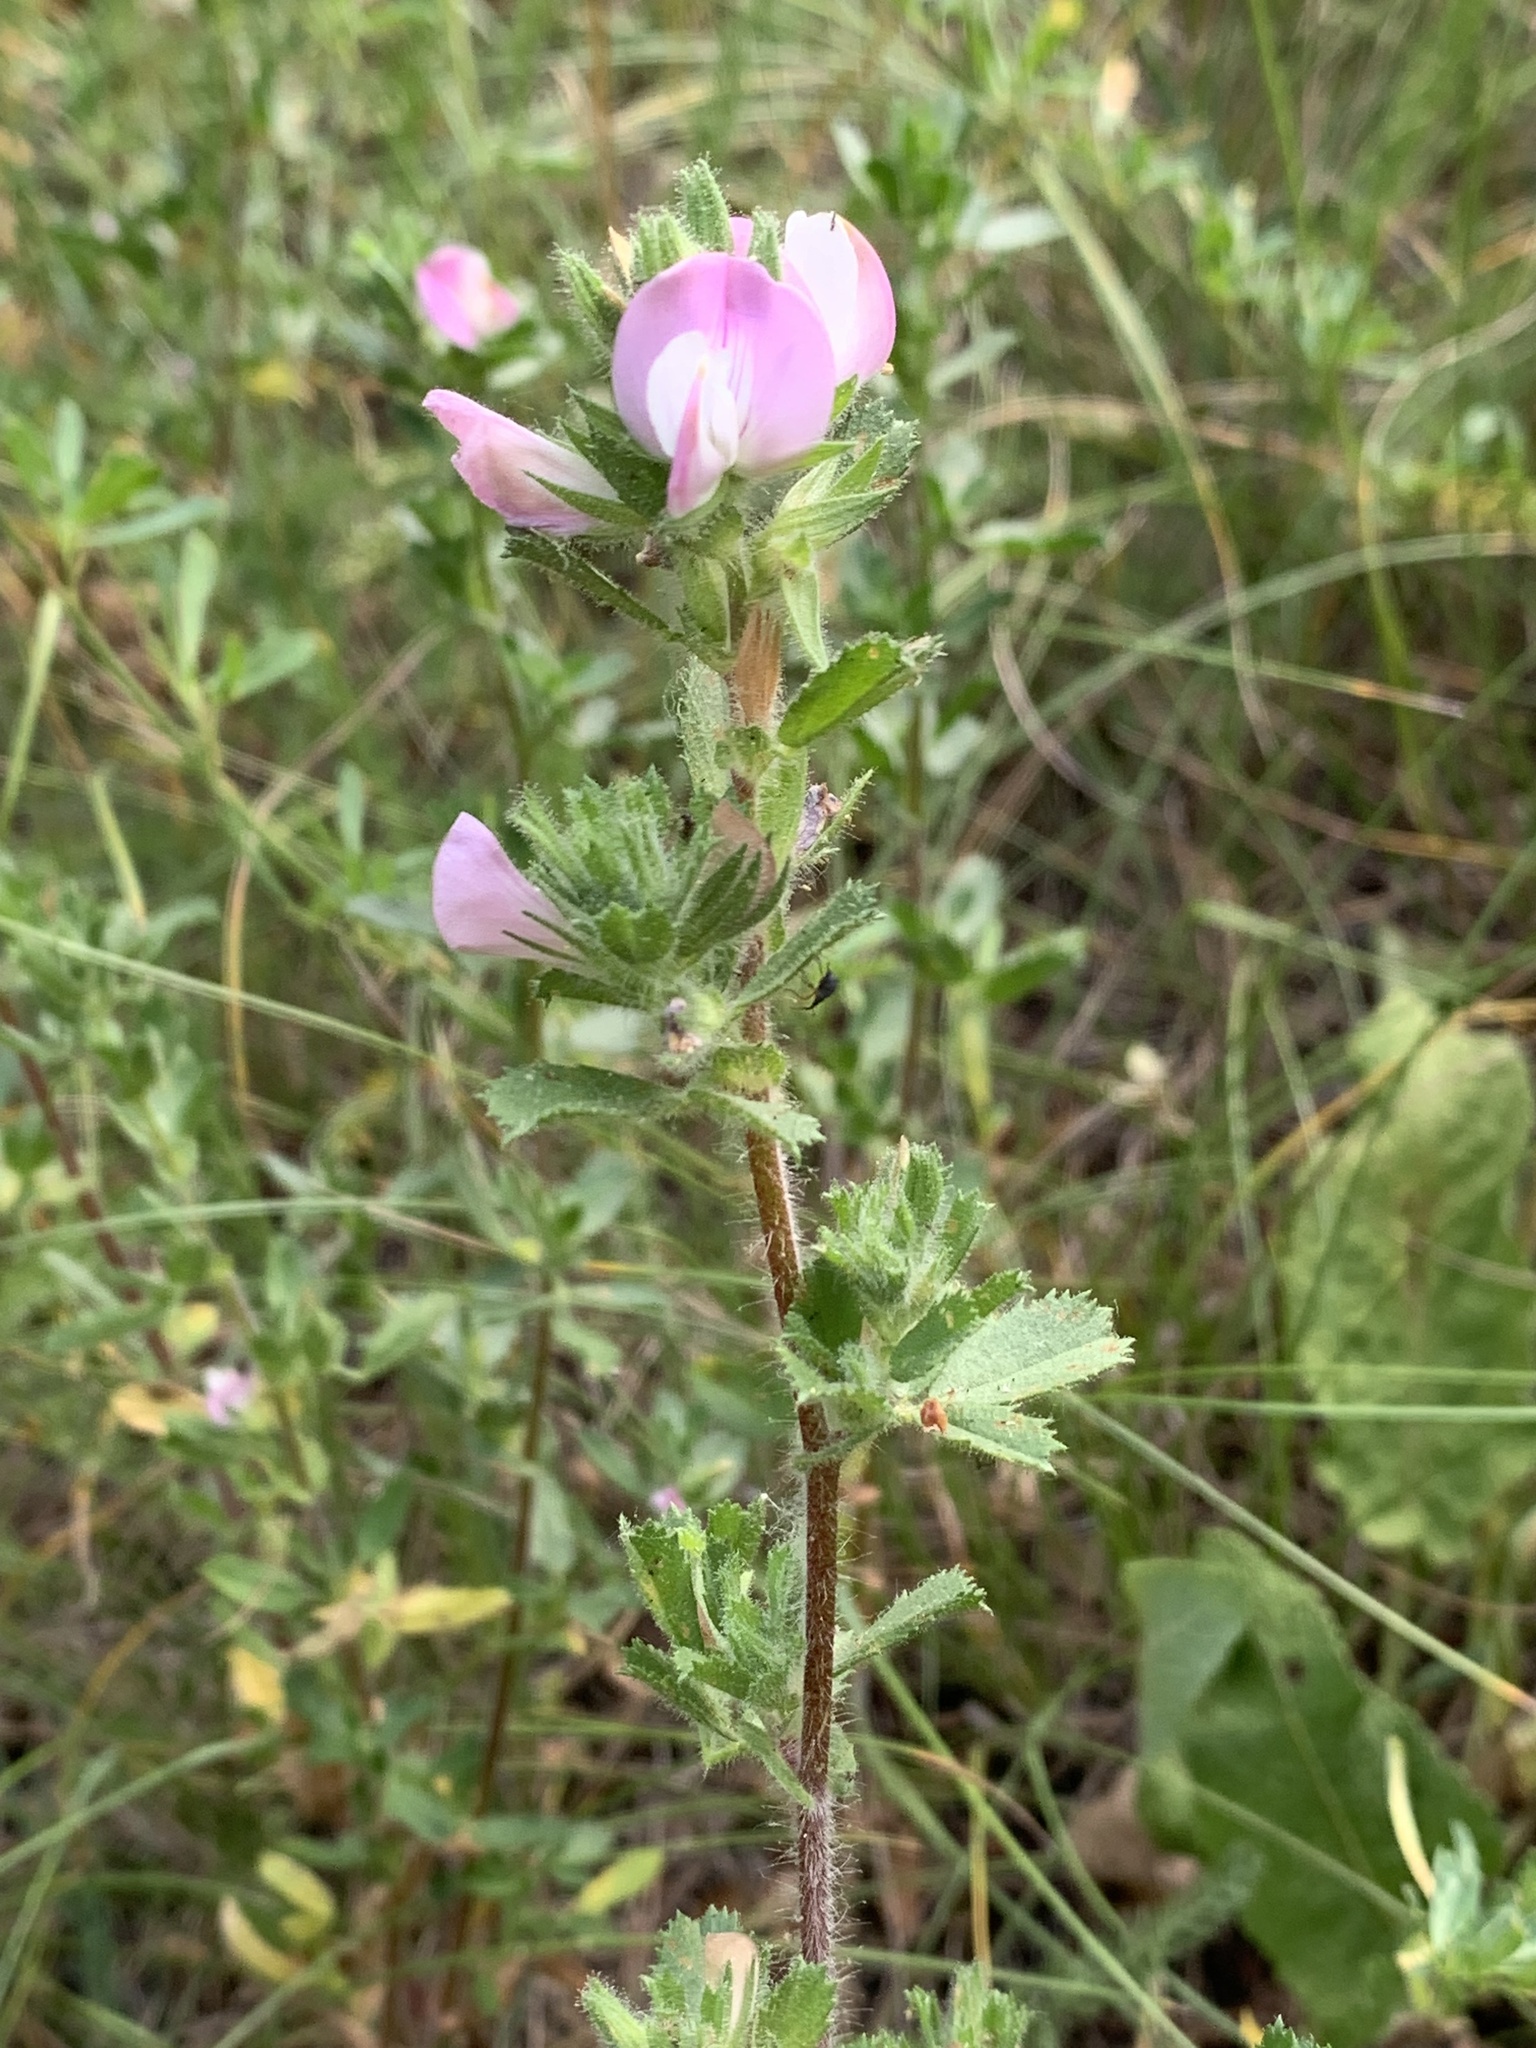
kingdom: Plantae
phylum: Tracheophyta
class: Magnoliopsida
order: Fabales
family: Fabaceae
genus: Ononis
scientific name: Ononis spinosa
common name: Spiny restharrow
